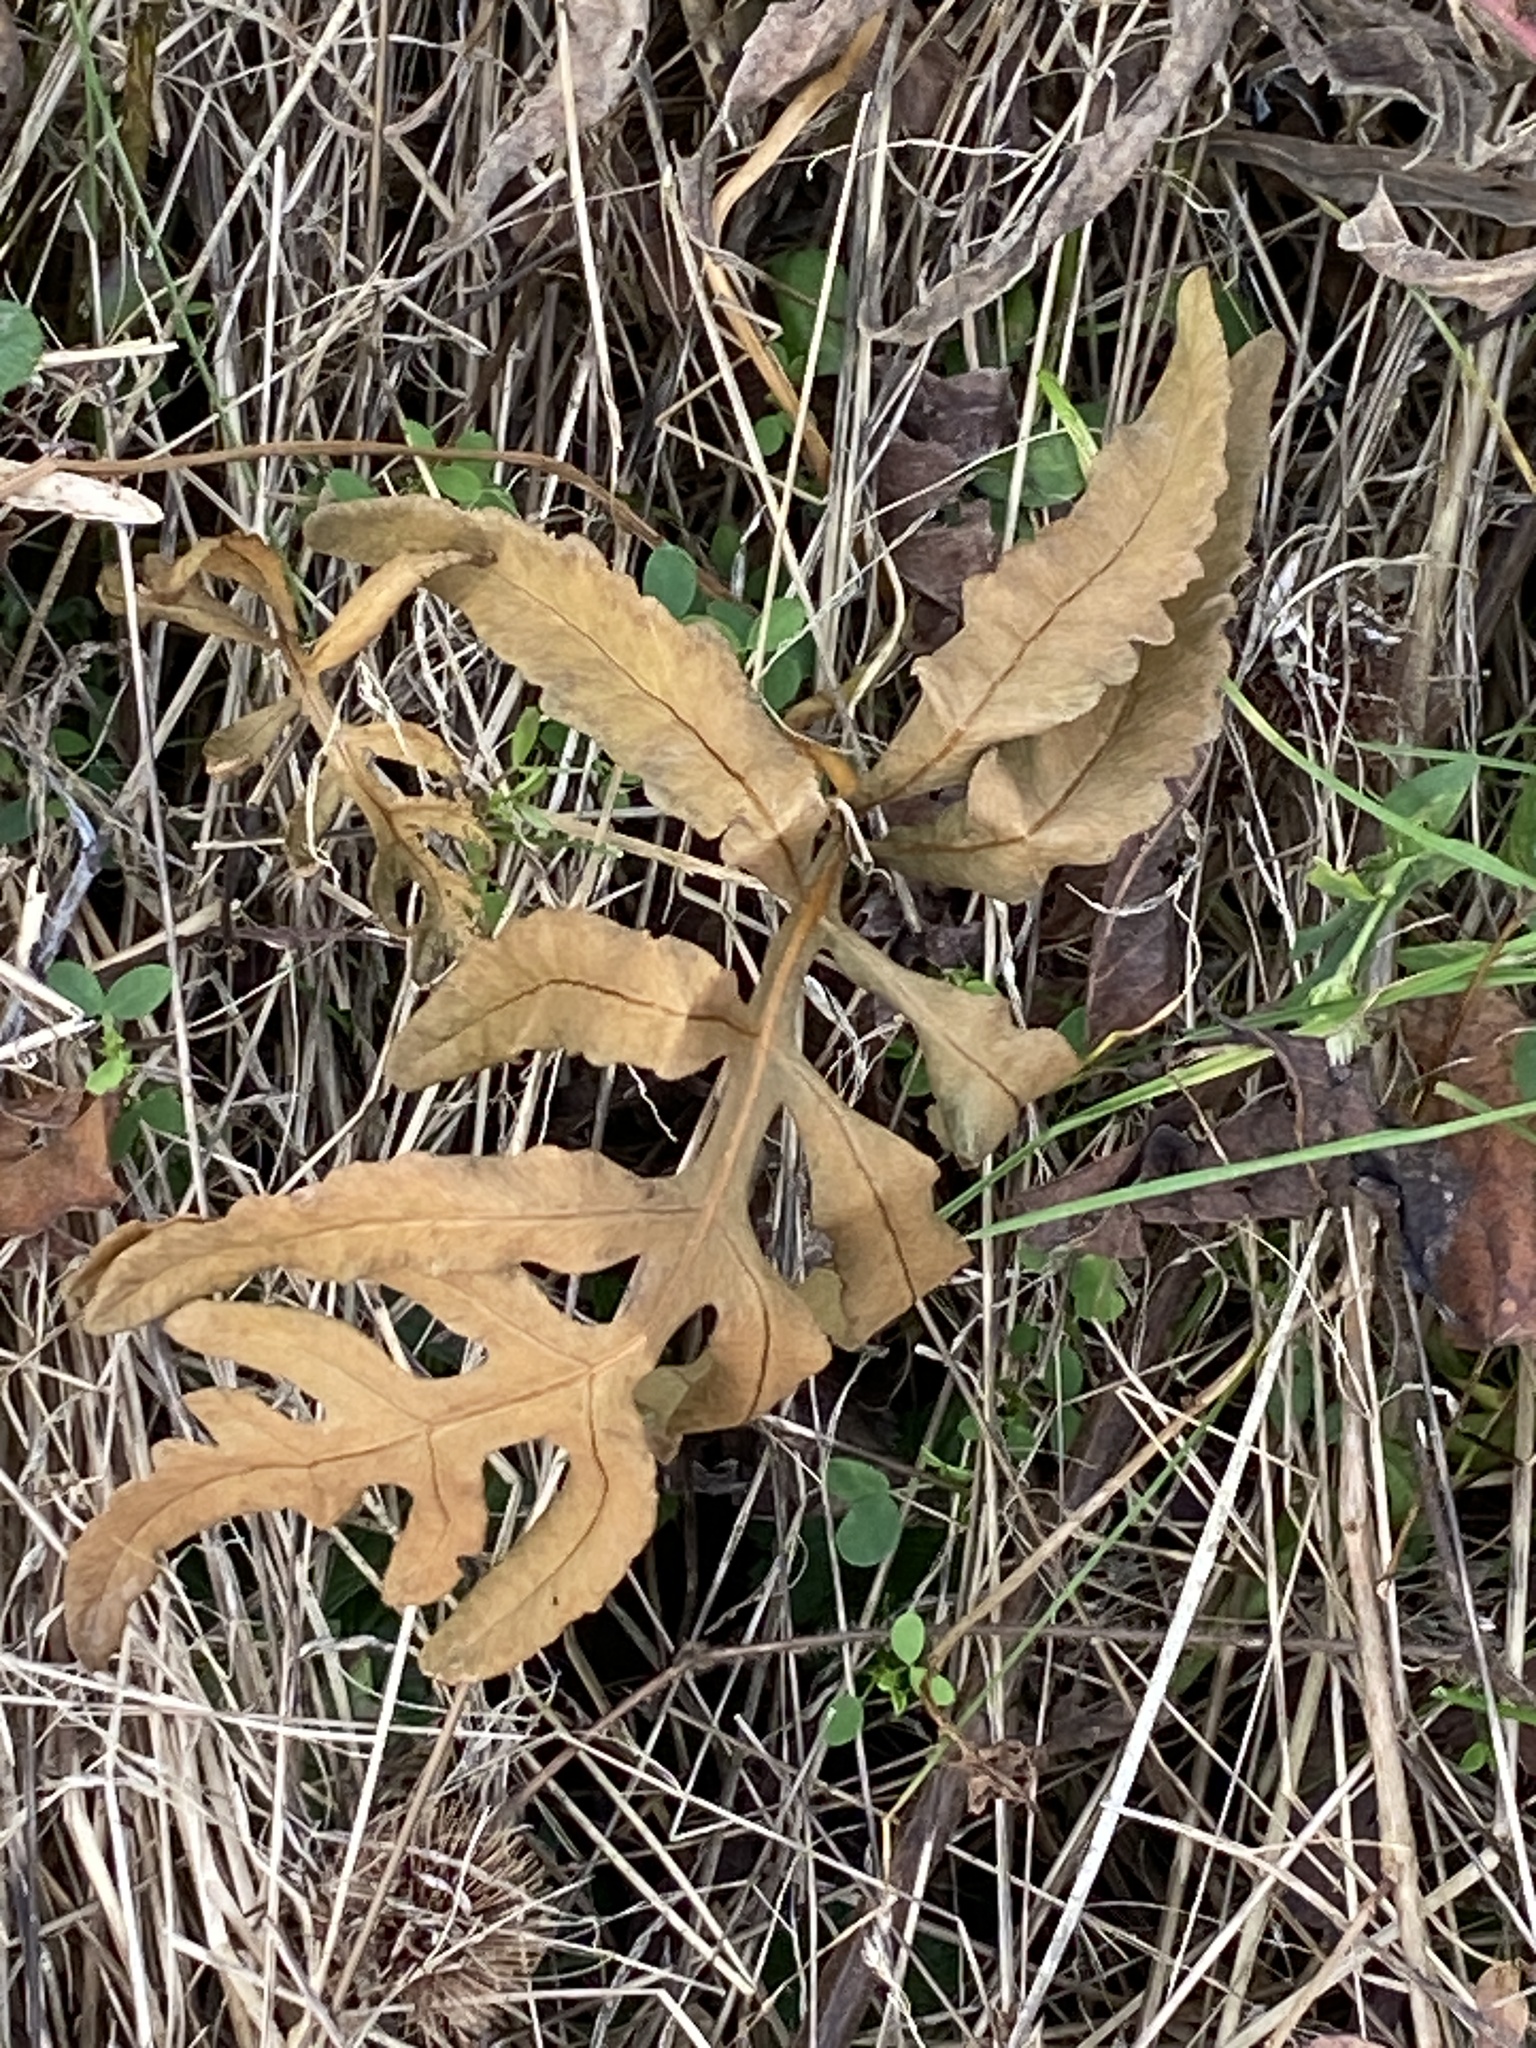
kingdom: Plantae
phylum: Tracheophyta
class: Polypodiopsida
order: Polypodiales
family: Onocleaceae
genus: Onoclea
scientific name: Onoclea sensibilis
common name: Sensitive fern
